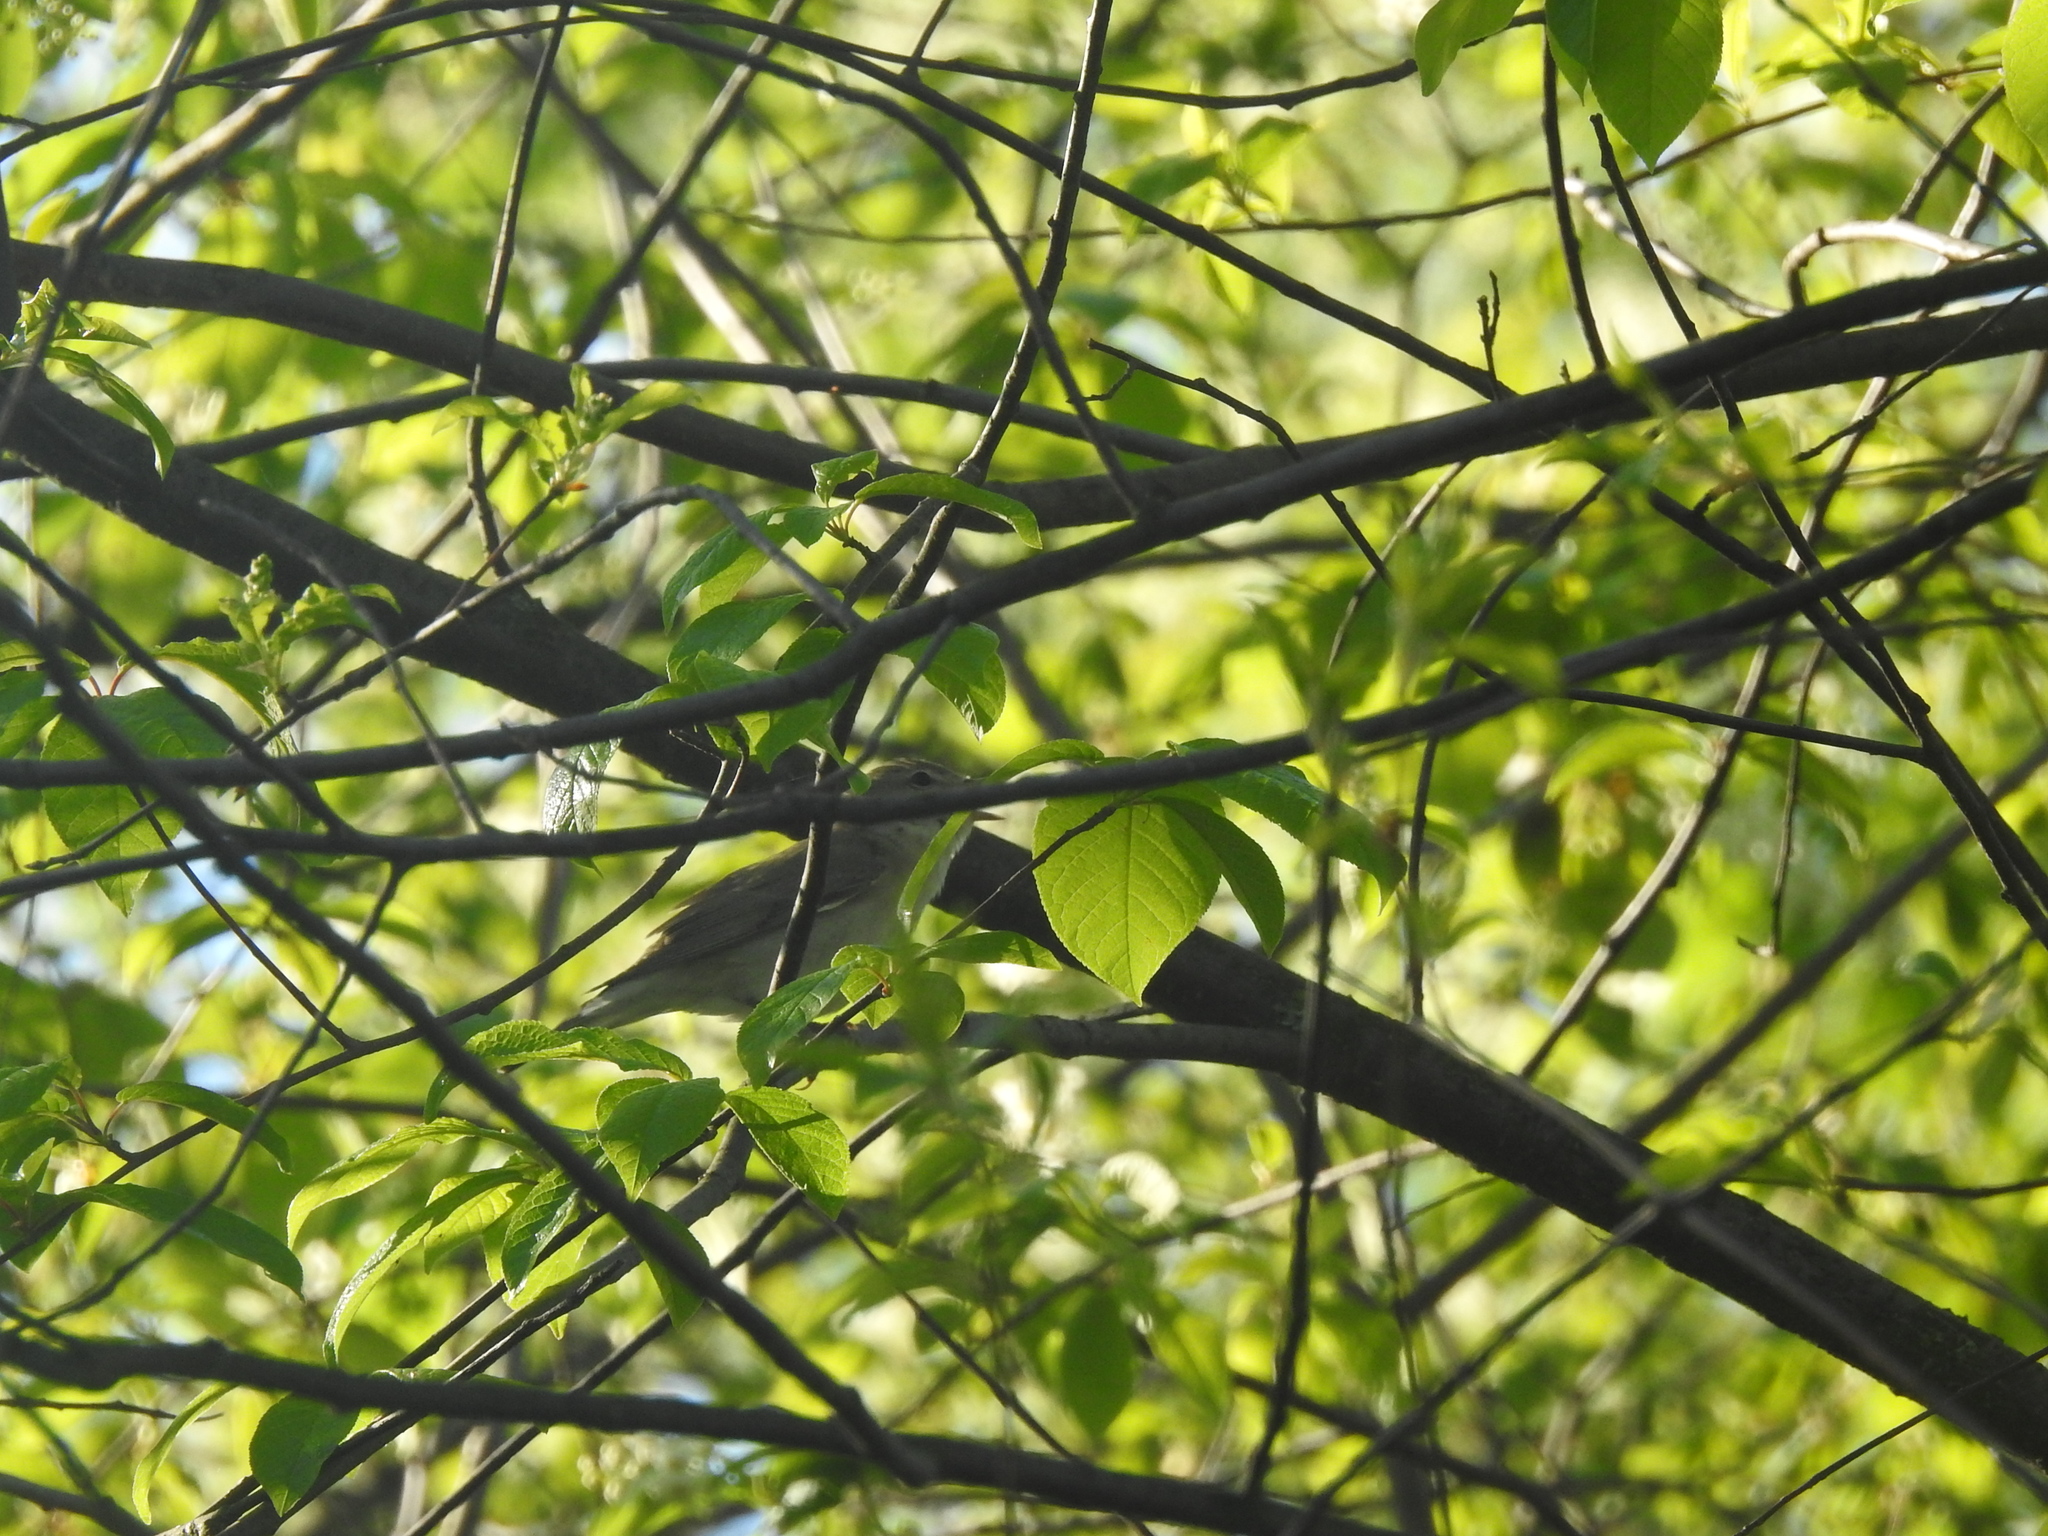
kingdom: Animalia
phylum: Chordata
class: Aves
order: Passeriformes
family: Sylviidae
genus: Sylvia
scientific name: Sylvia borin
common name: Garden warbler
